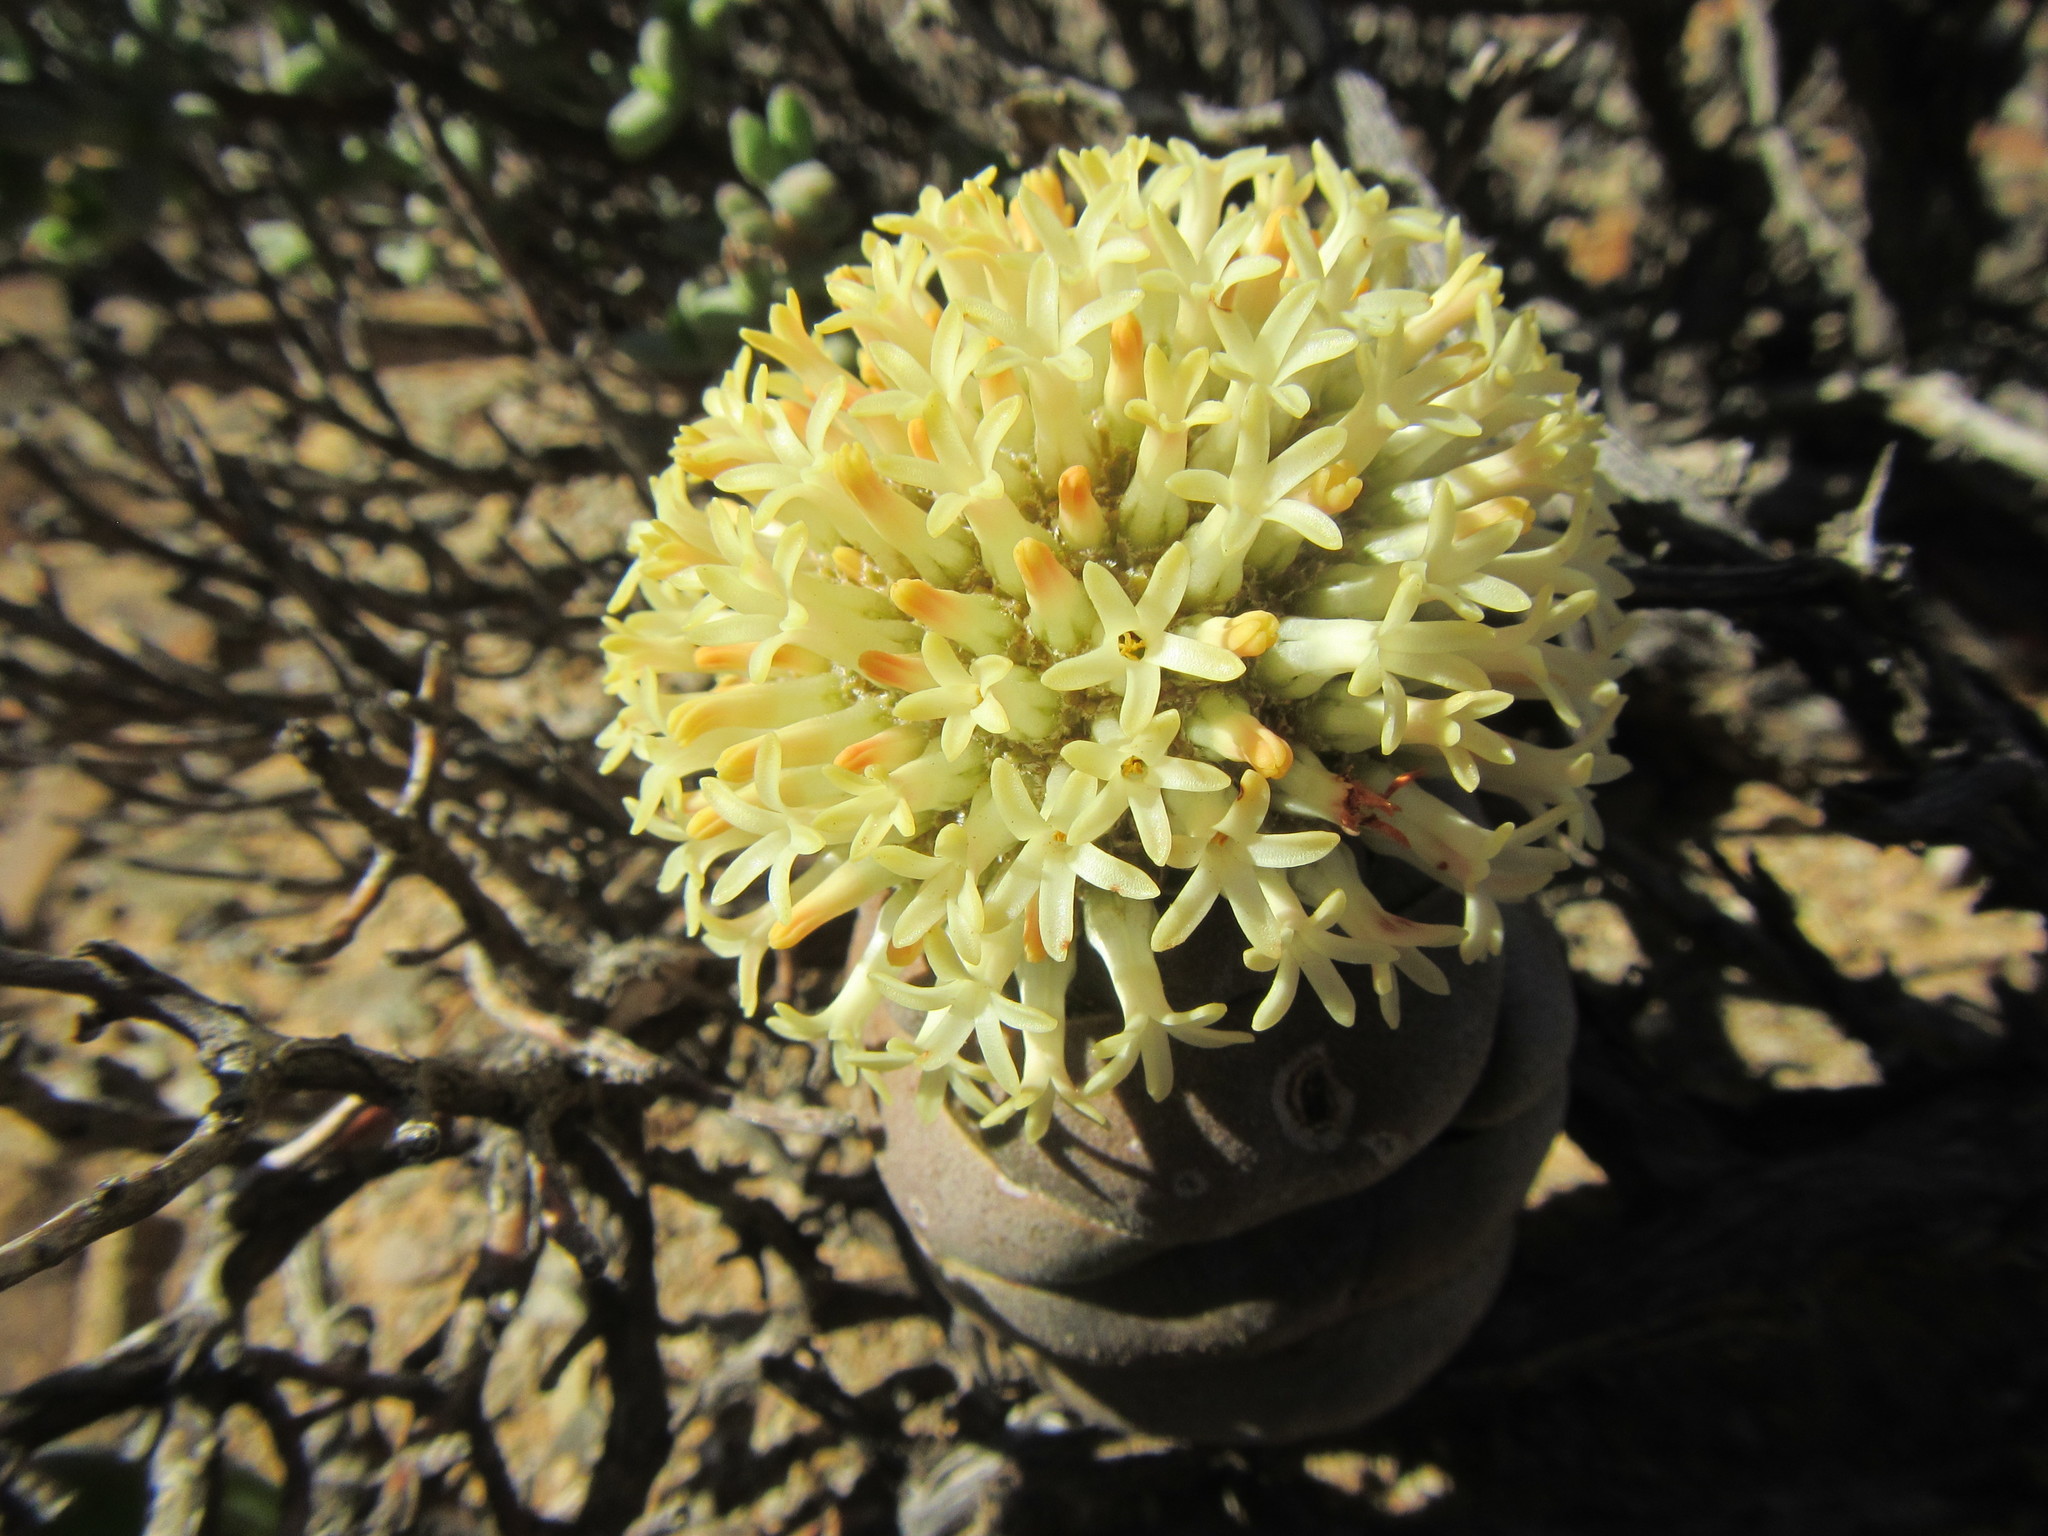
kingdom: Plantae
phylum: Tracheophyta
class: Magnoliopsida
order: Saxifragales
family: Crassulaceae
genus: Crassula
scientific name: Crassula columnaris
